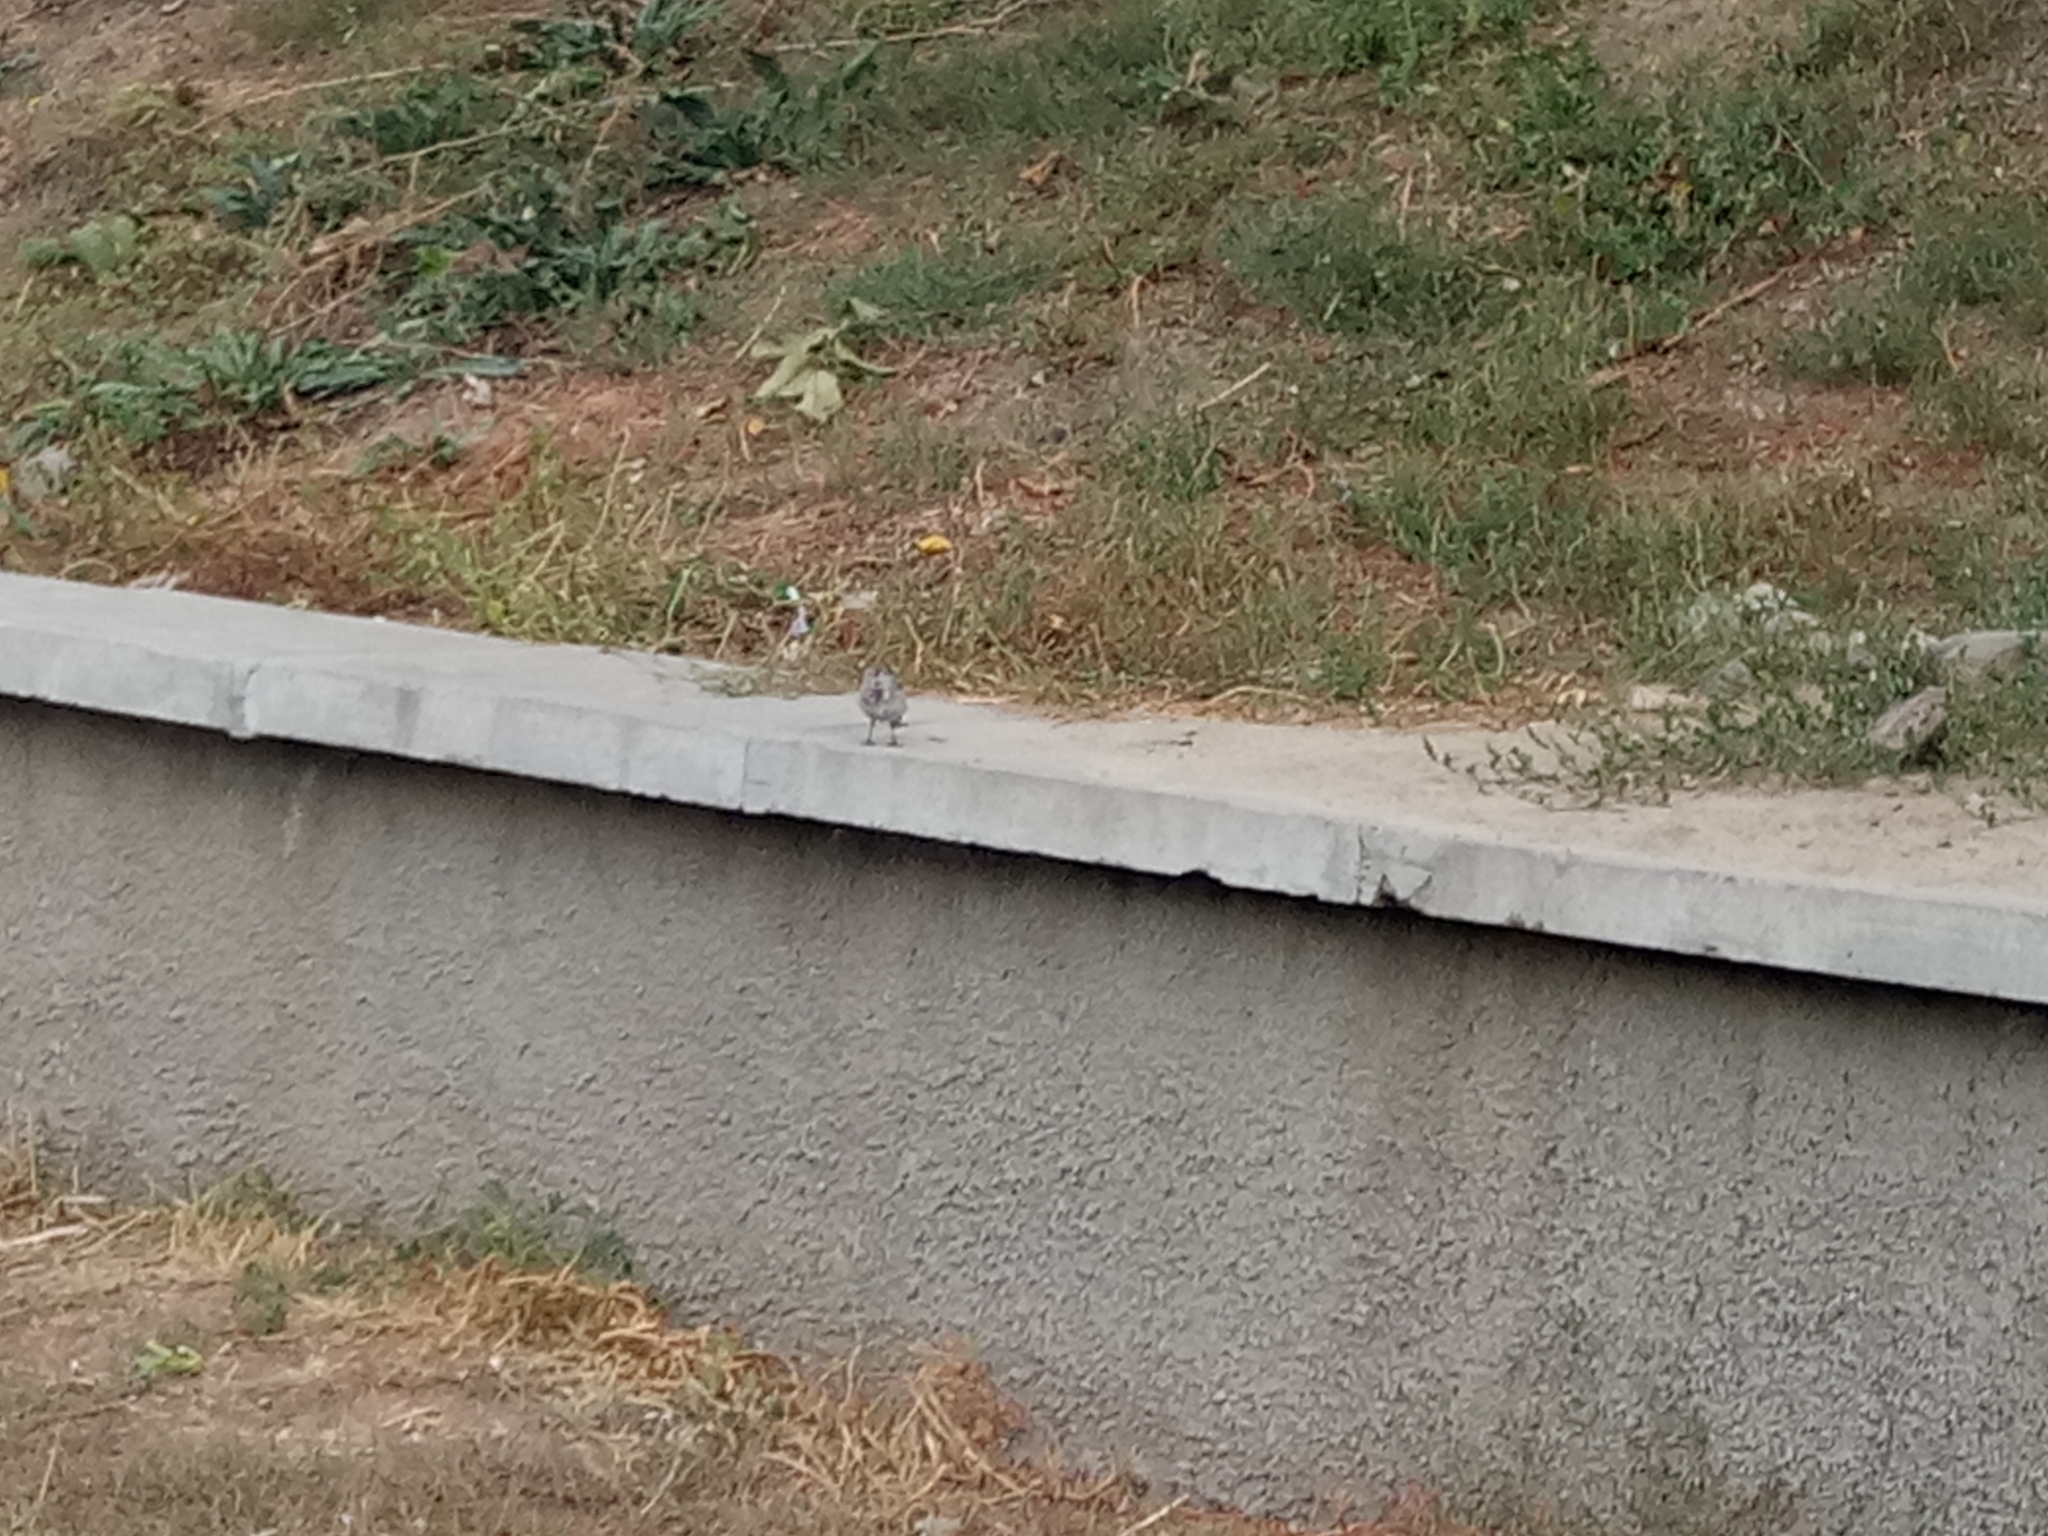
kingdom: Animalia
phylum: Chordata
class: Aves
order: Passeriformes
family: Motacillidae
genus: Motacilla
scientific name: Motacilla alba
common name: White wagtail
